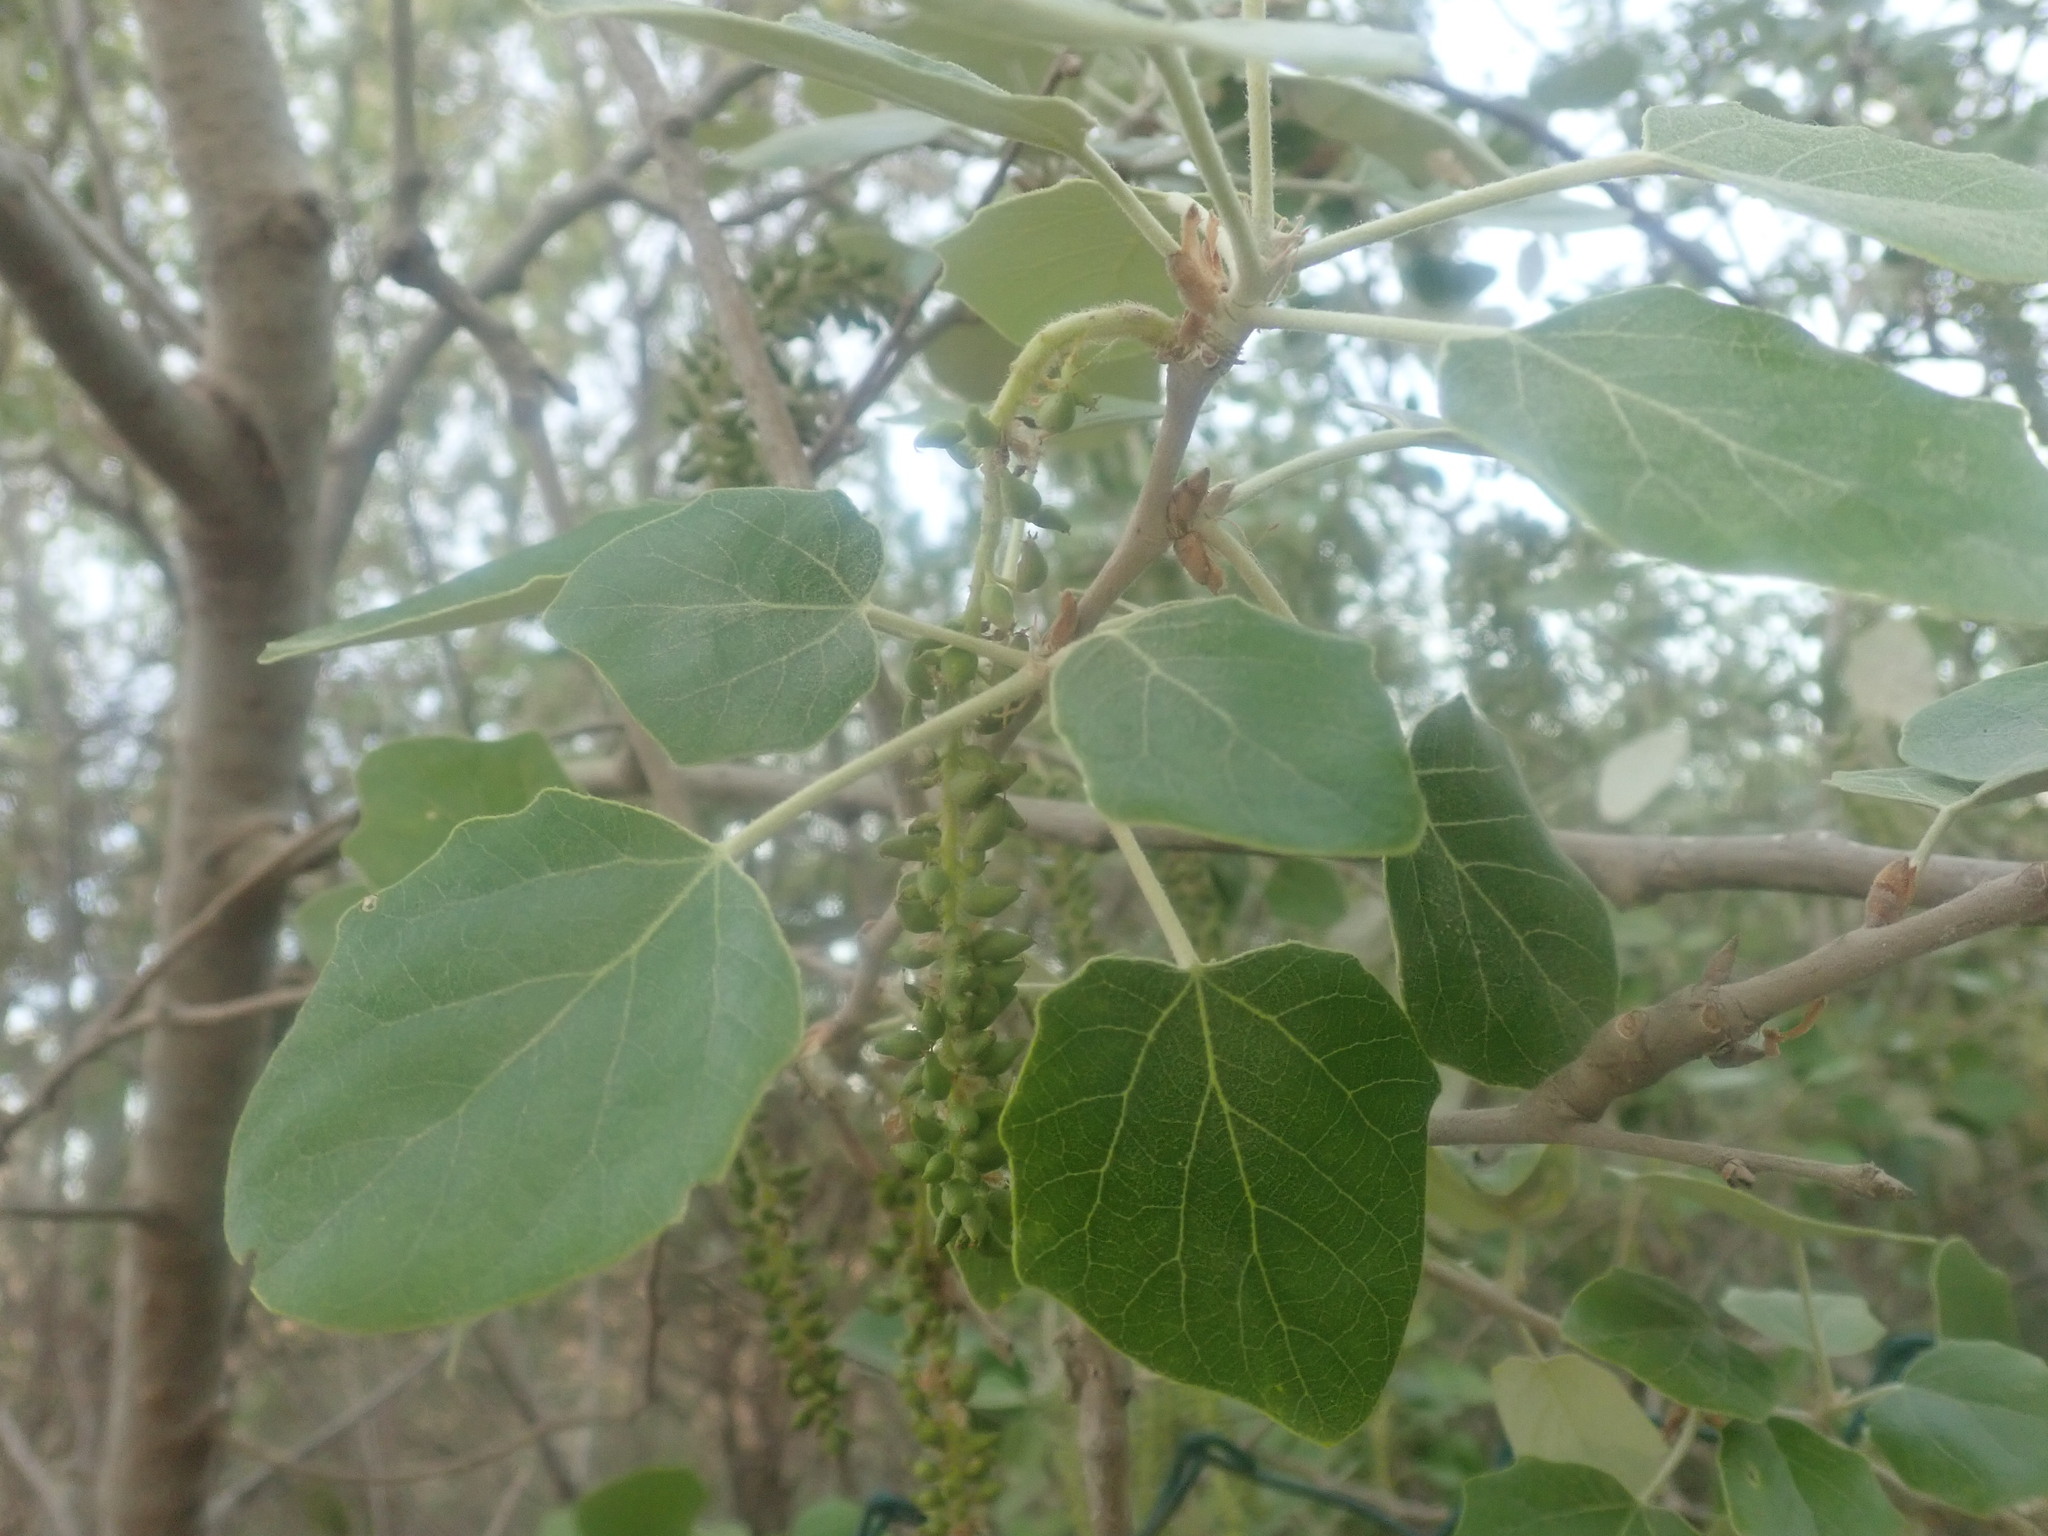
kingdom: Plantae
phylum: Tracheophyta
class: Magnoliopsida
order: Malpighiales
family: Salicaceae
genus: Populus
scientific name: Populus alba
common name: White poplar
